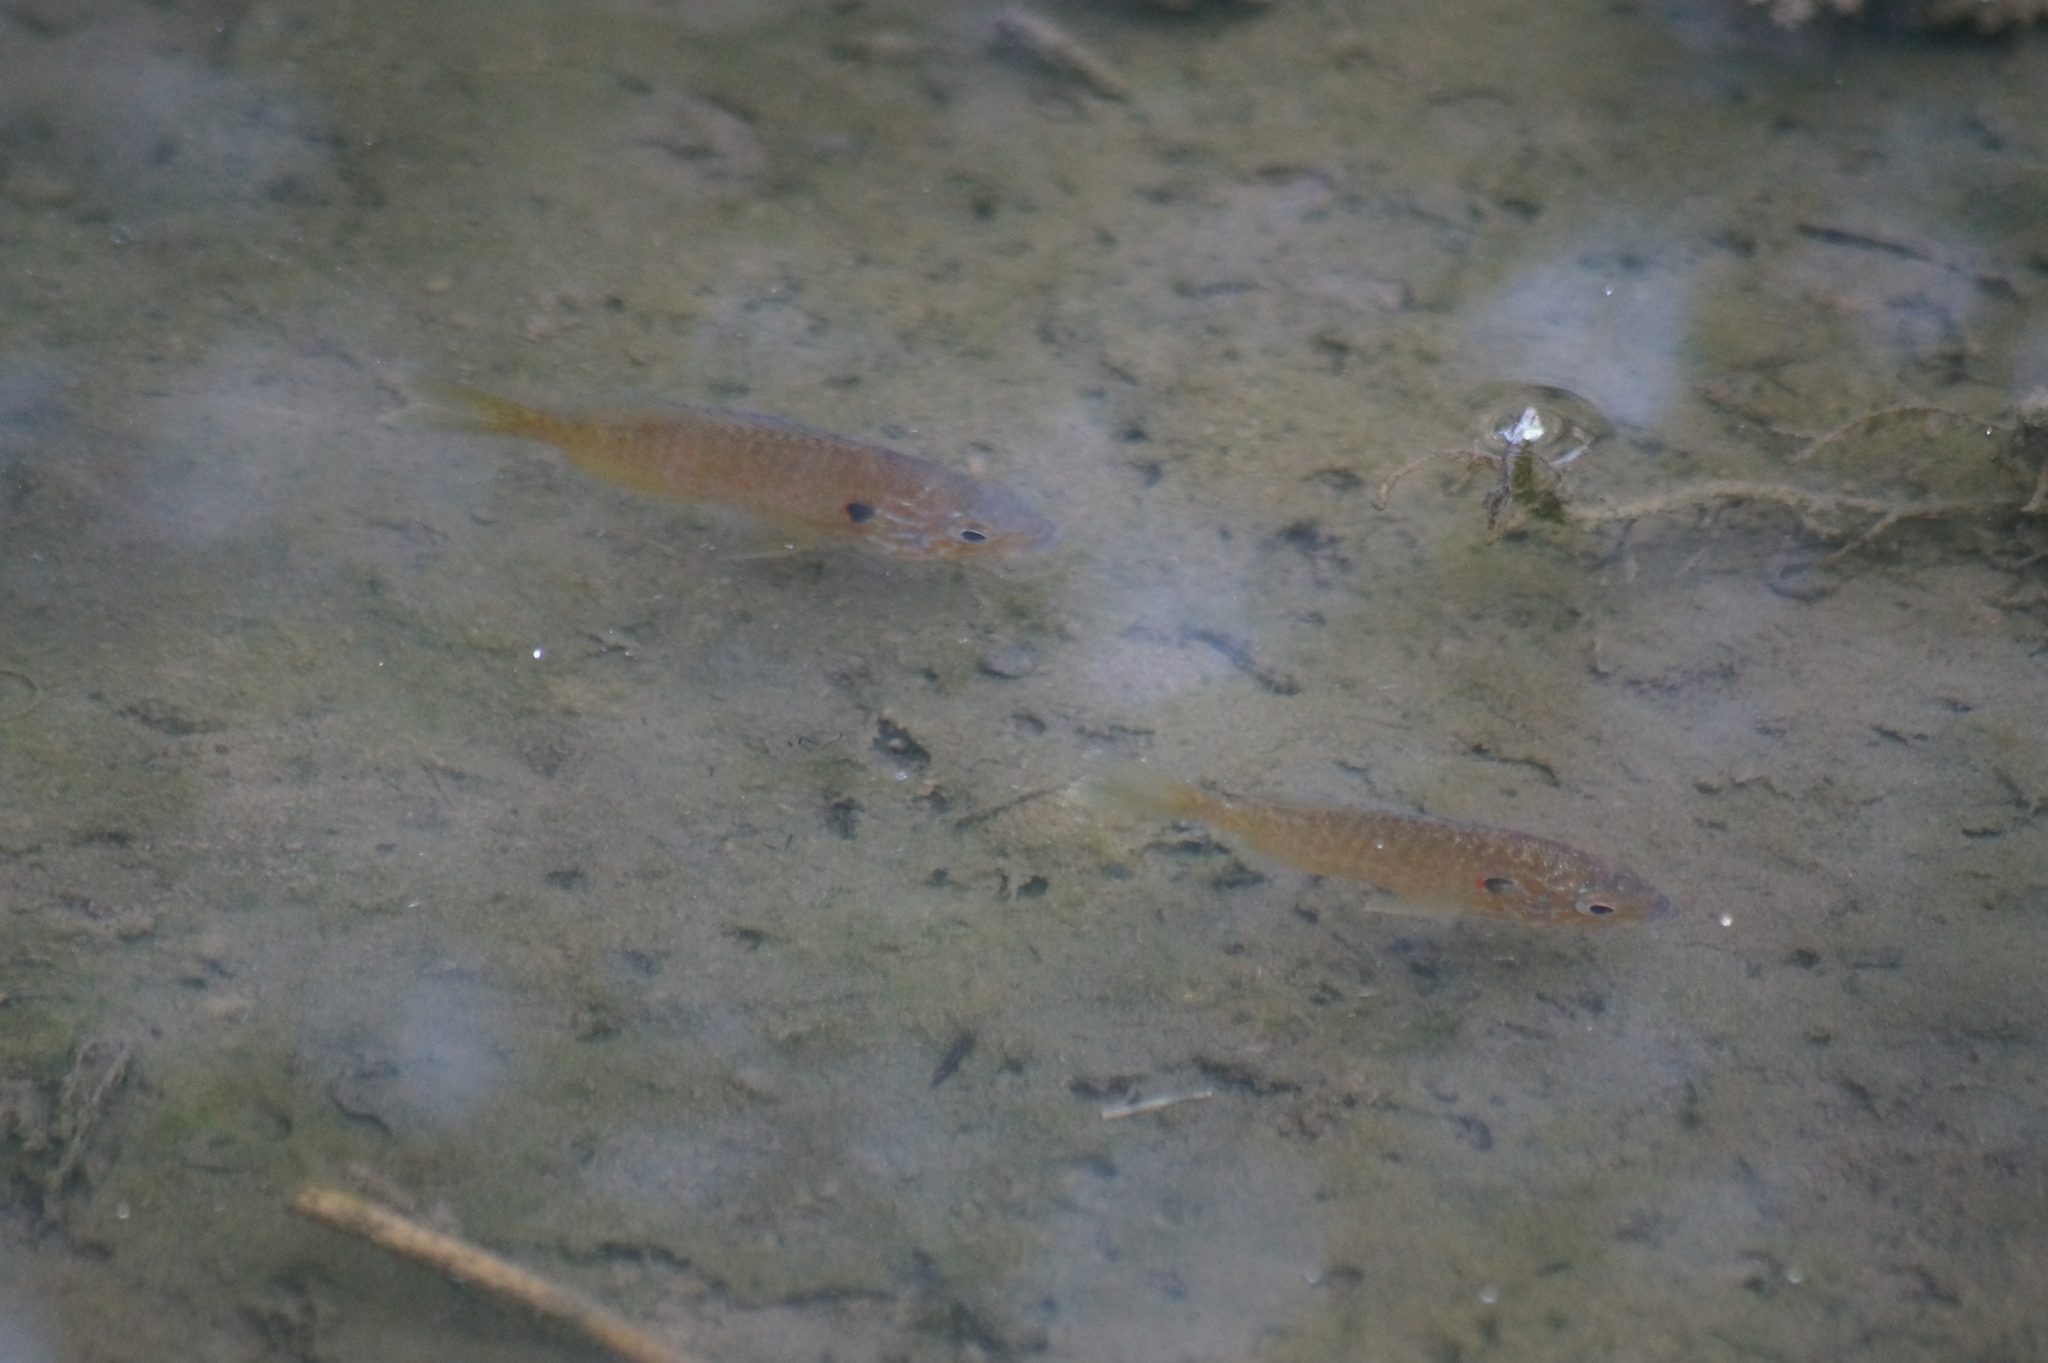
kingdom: Animalia
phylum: Chordata
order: Perciformes
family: Centrarchidae
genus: Lepomis
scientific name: Lepomis gibbosus
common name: Pumpkinseed
